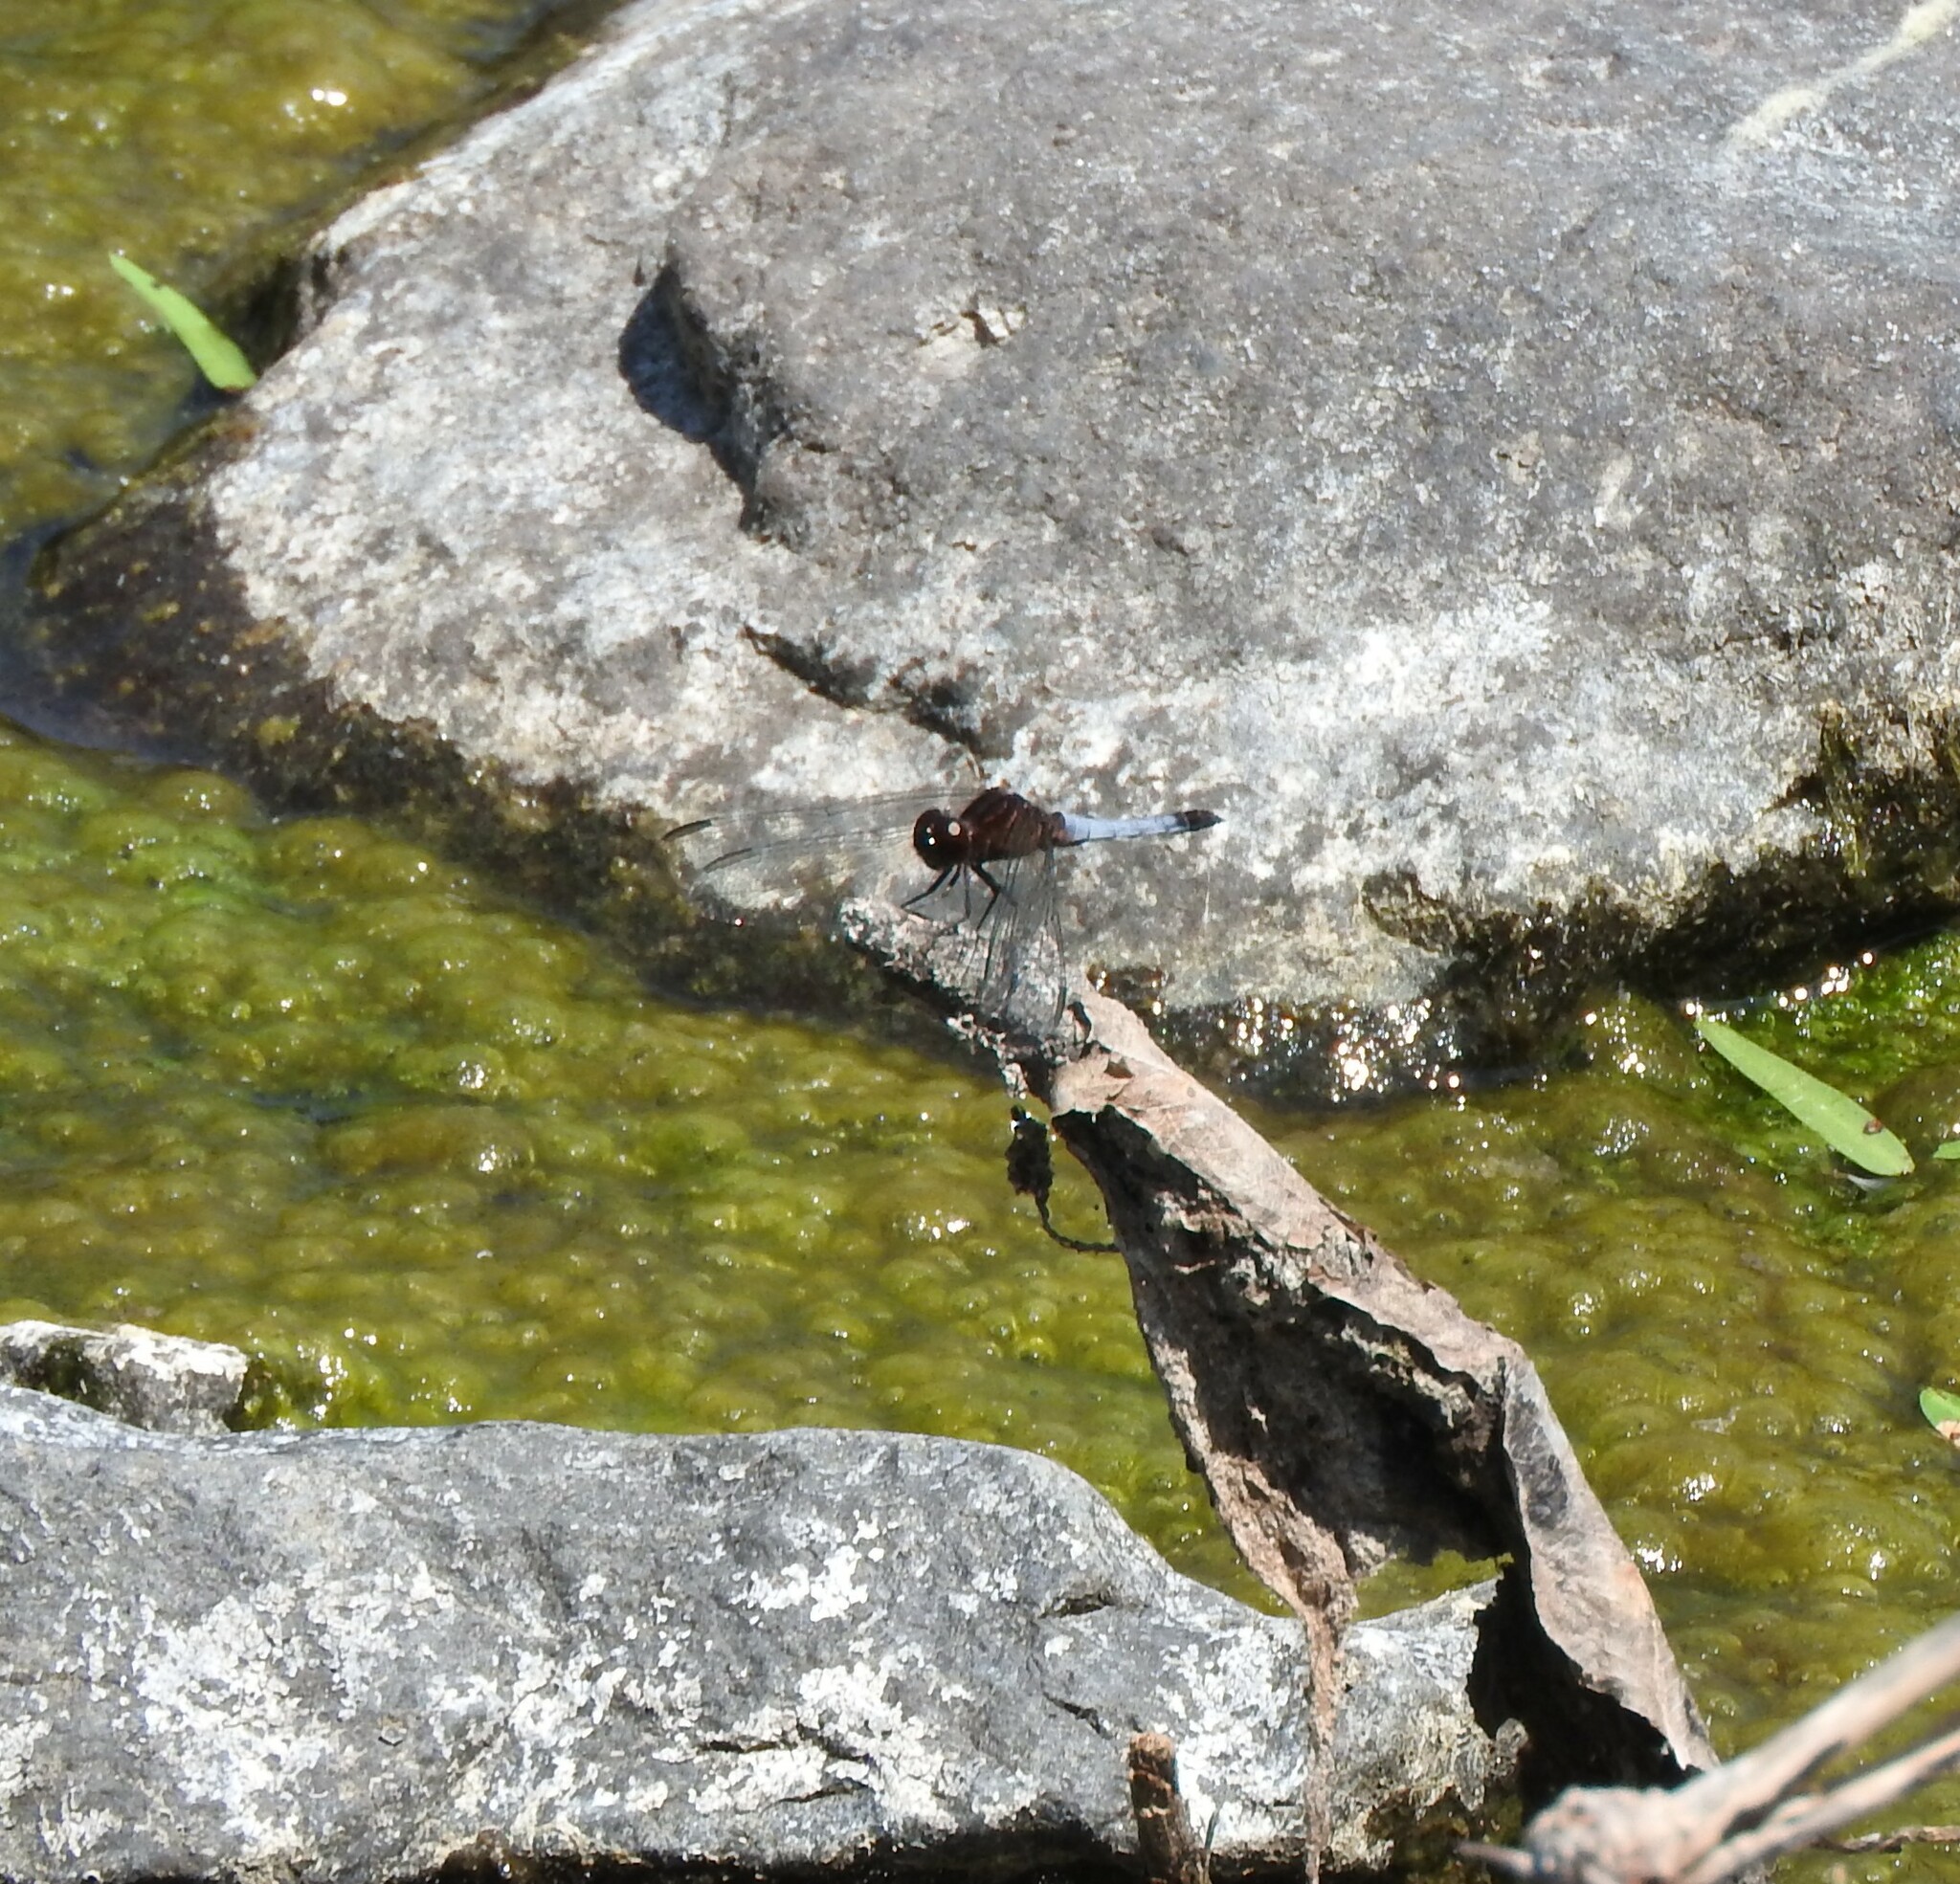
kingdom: Animalia
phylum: Arthropoda
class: Insecta
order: Odonata
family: Libellulidae
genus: Erythrodiplax
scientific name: Erythrodiplax basifusca
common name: Plateau dragonlet
